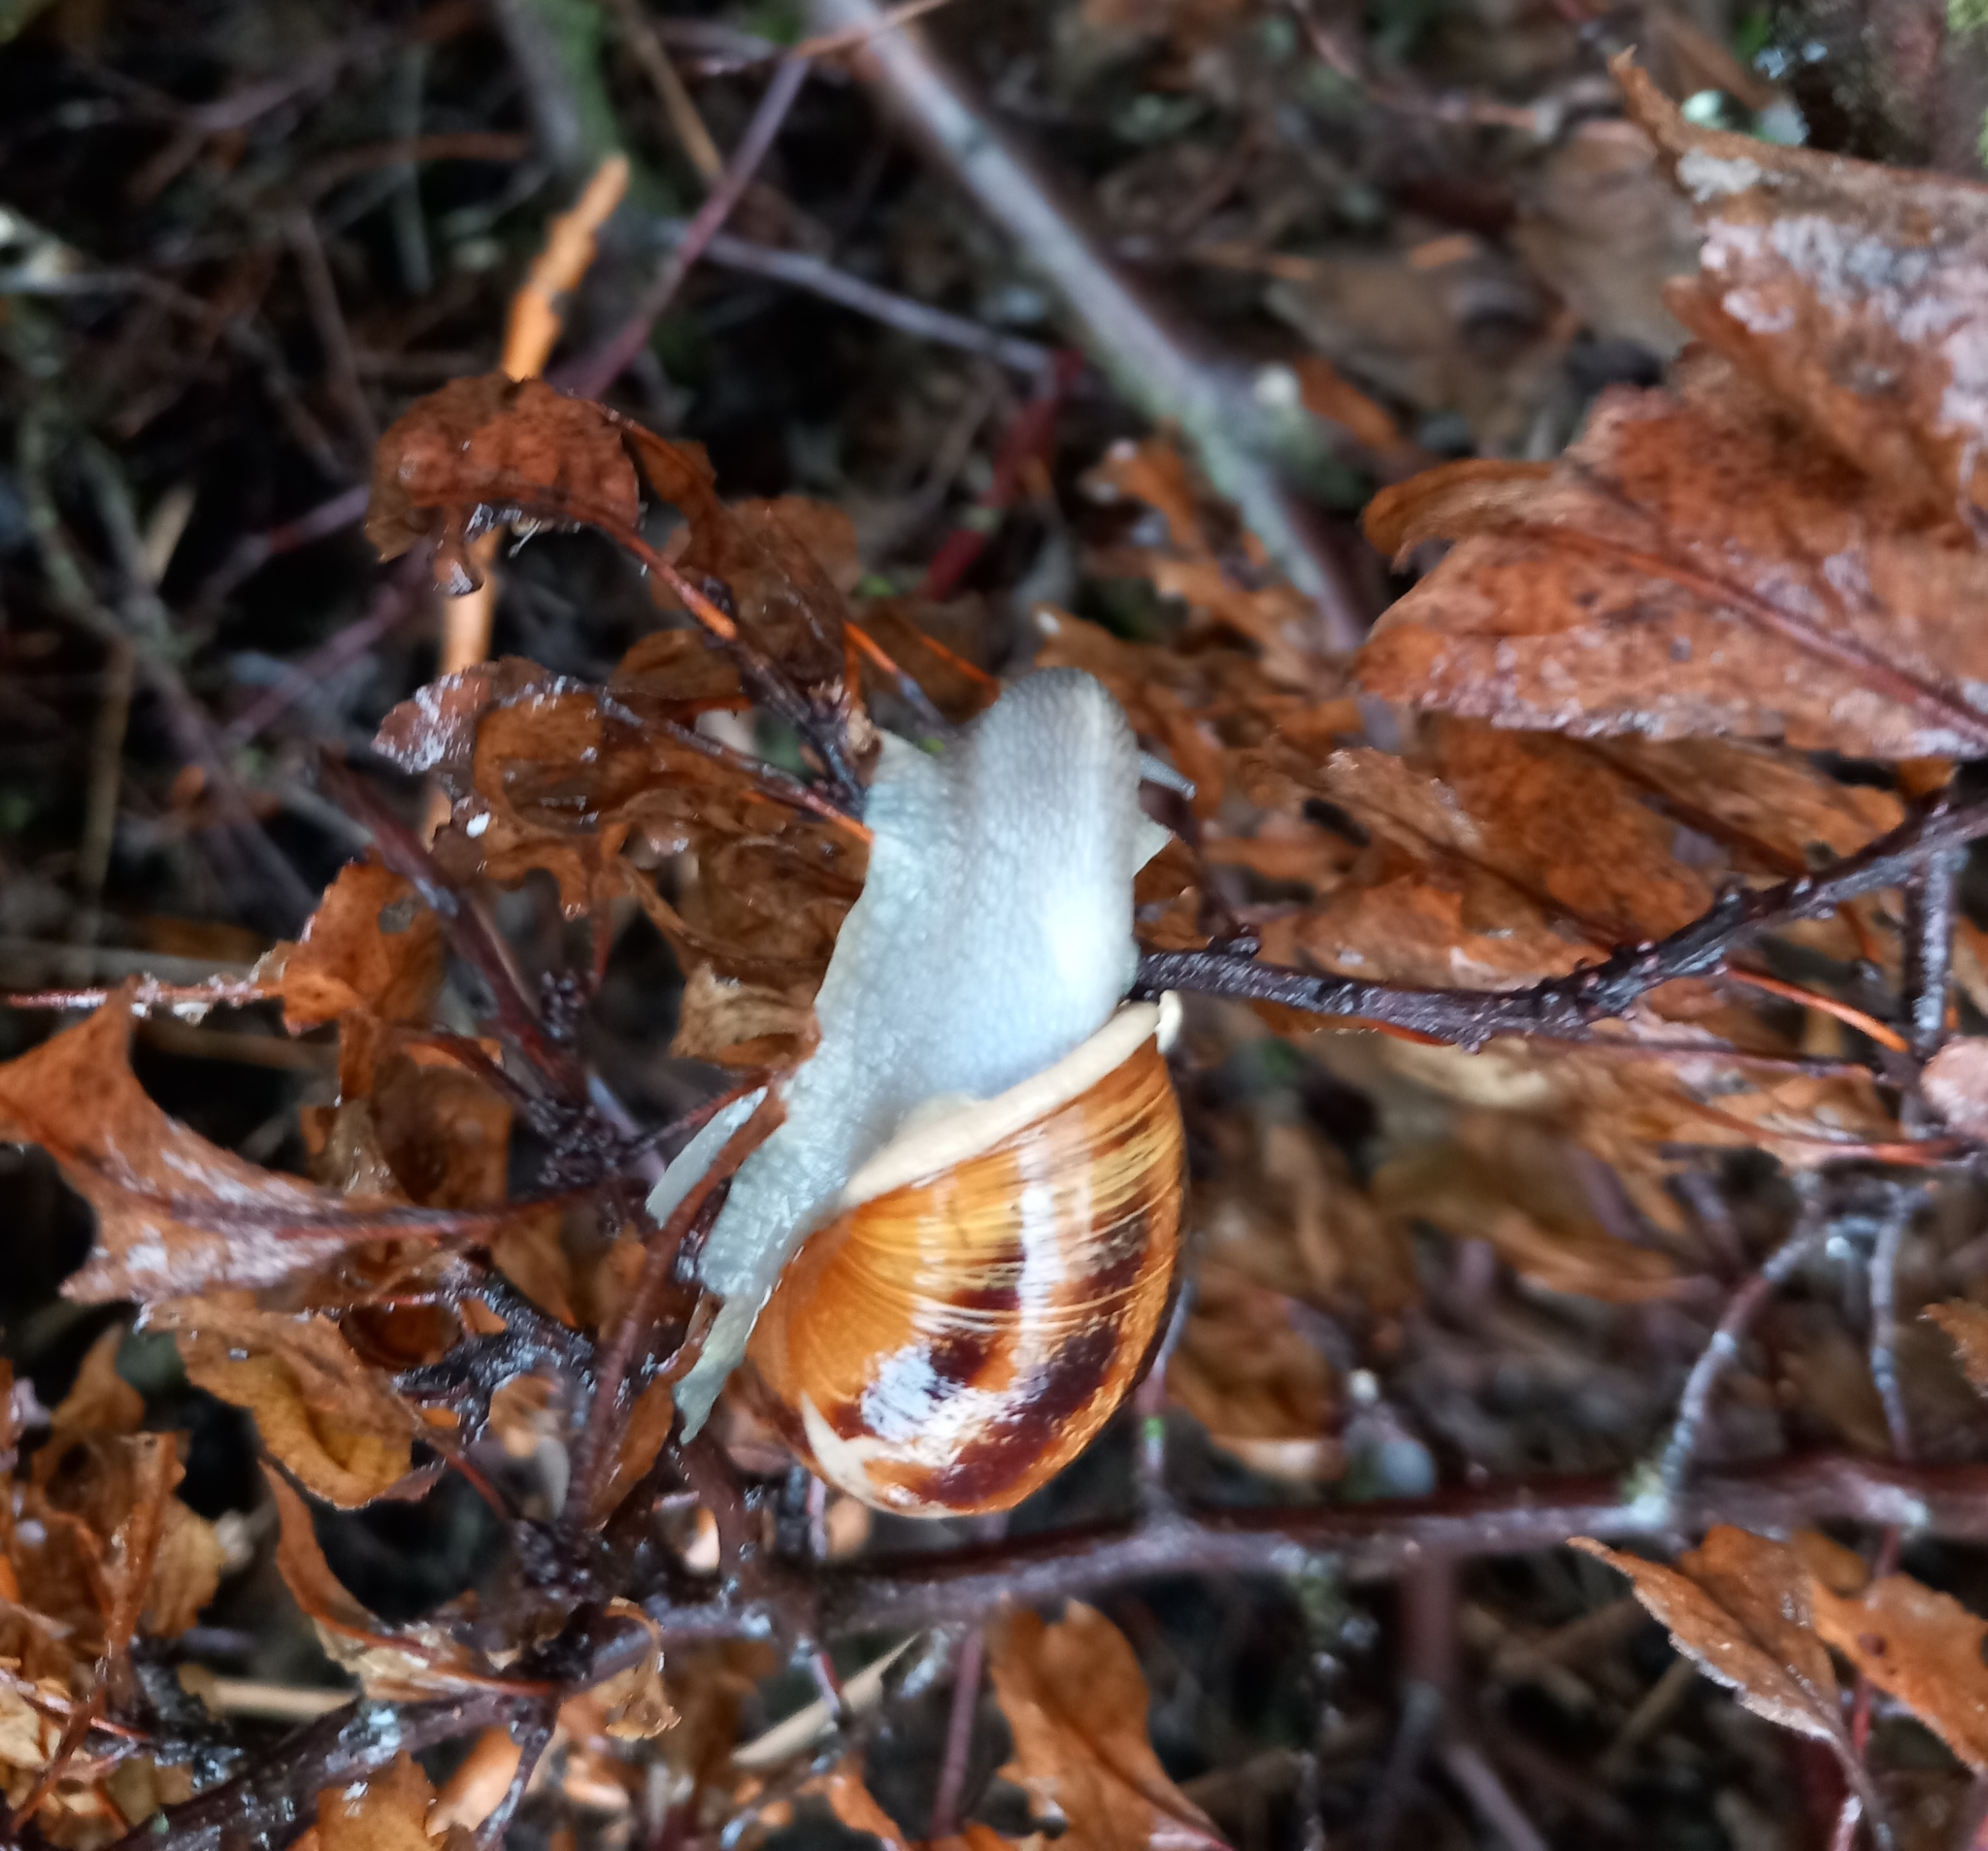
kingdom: Animalia
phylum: Mollusca
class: Gastropoda
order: Stylommatophora
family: Helicidae
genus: Cornu
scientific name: Cornu aspersum
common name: Brown garden snail
